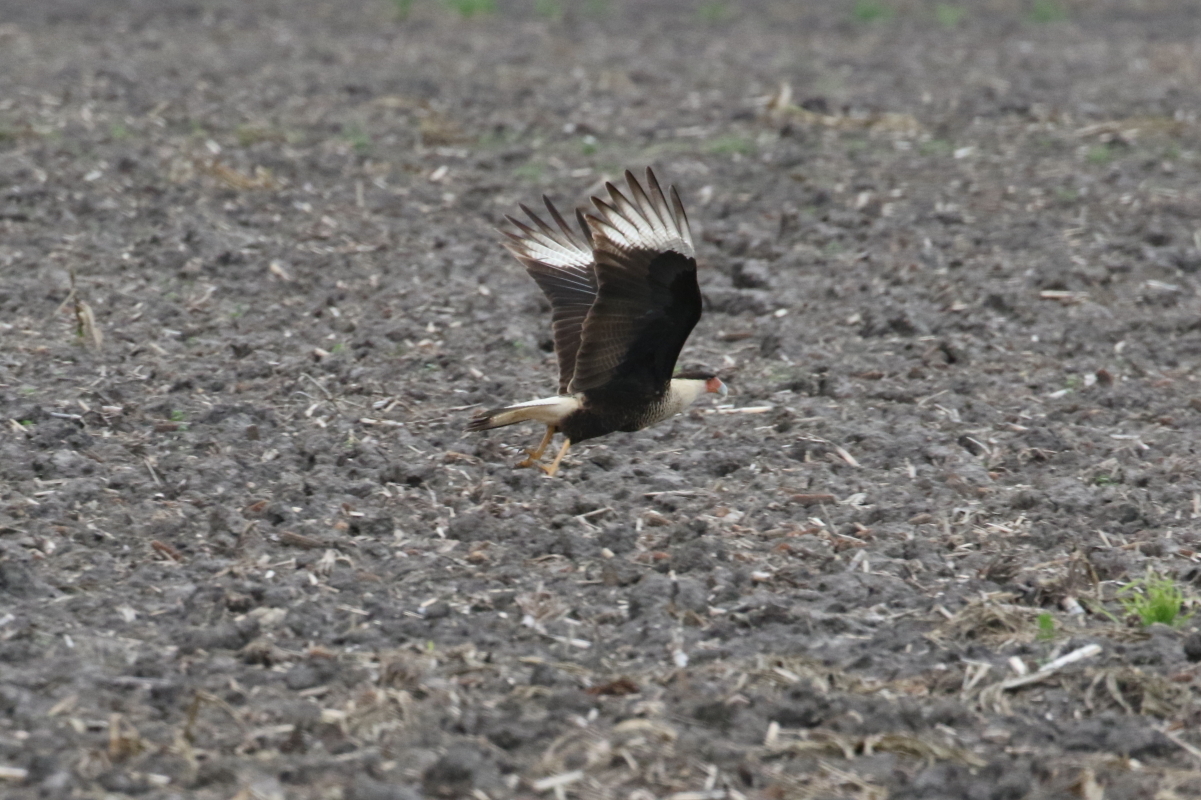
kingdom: Animalia
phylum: Chordata
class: Aves
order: Falconiformes
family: Falconidae
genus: Caracara
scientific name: Caracara plancus
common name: Southern caracara
